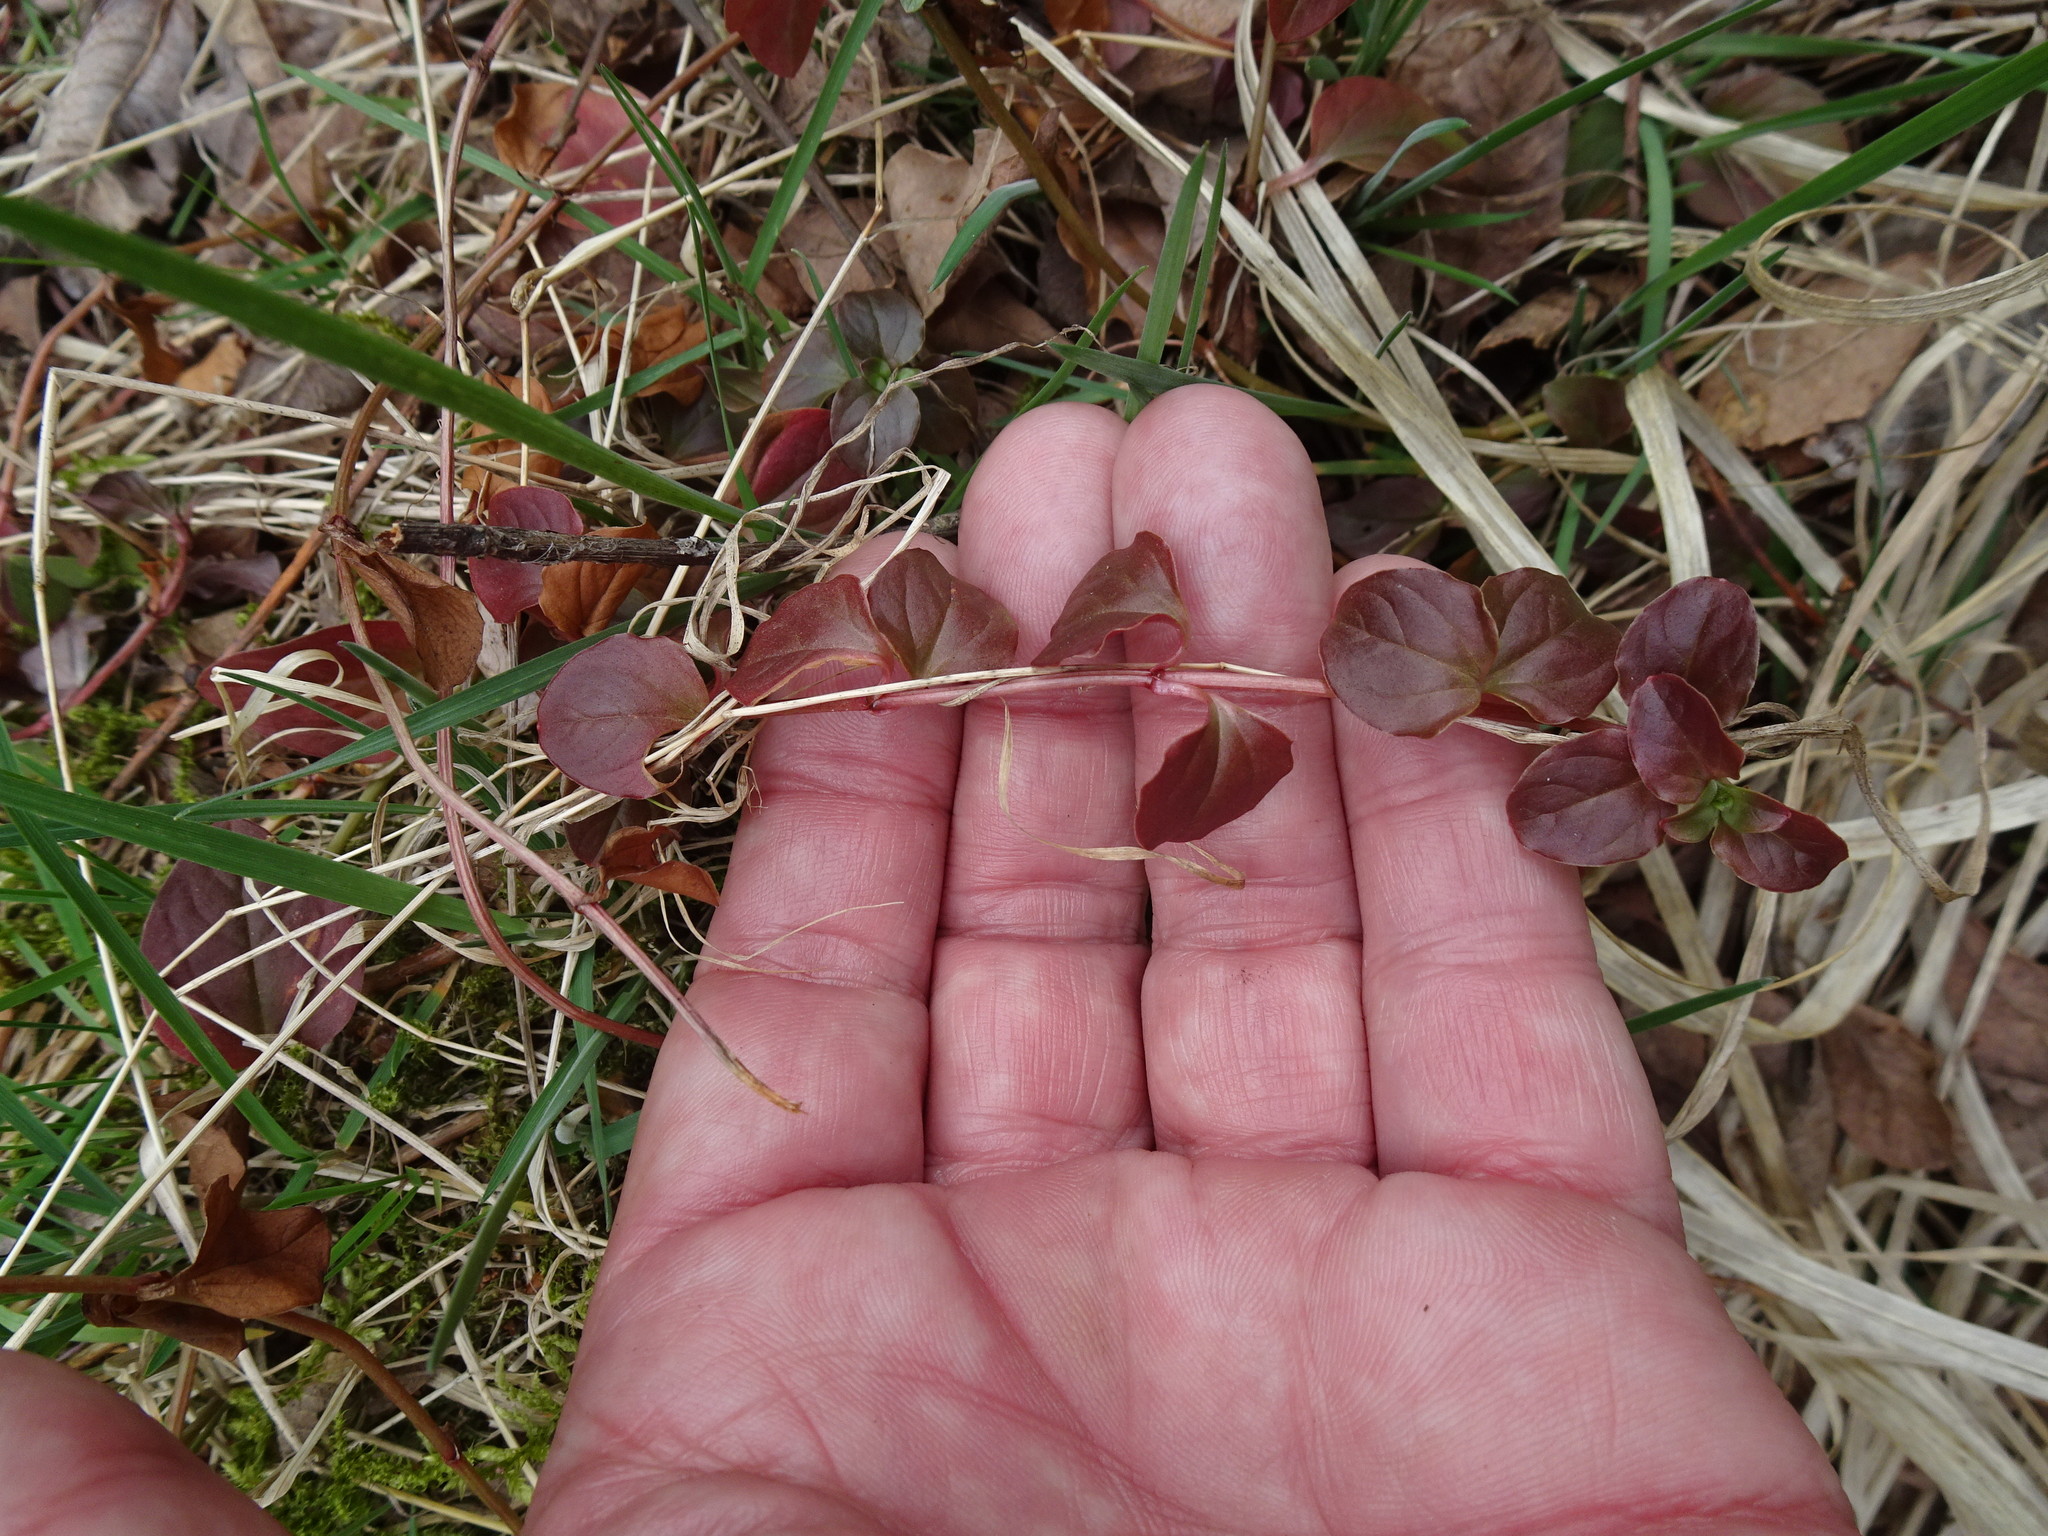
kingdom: Plantae
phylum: Tracheophyta
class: Magnoliopsida
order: Ericales
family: Primulaceae
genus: Lysimachia
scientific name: Lysimachia nummularia
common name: Moneywort
